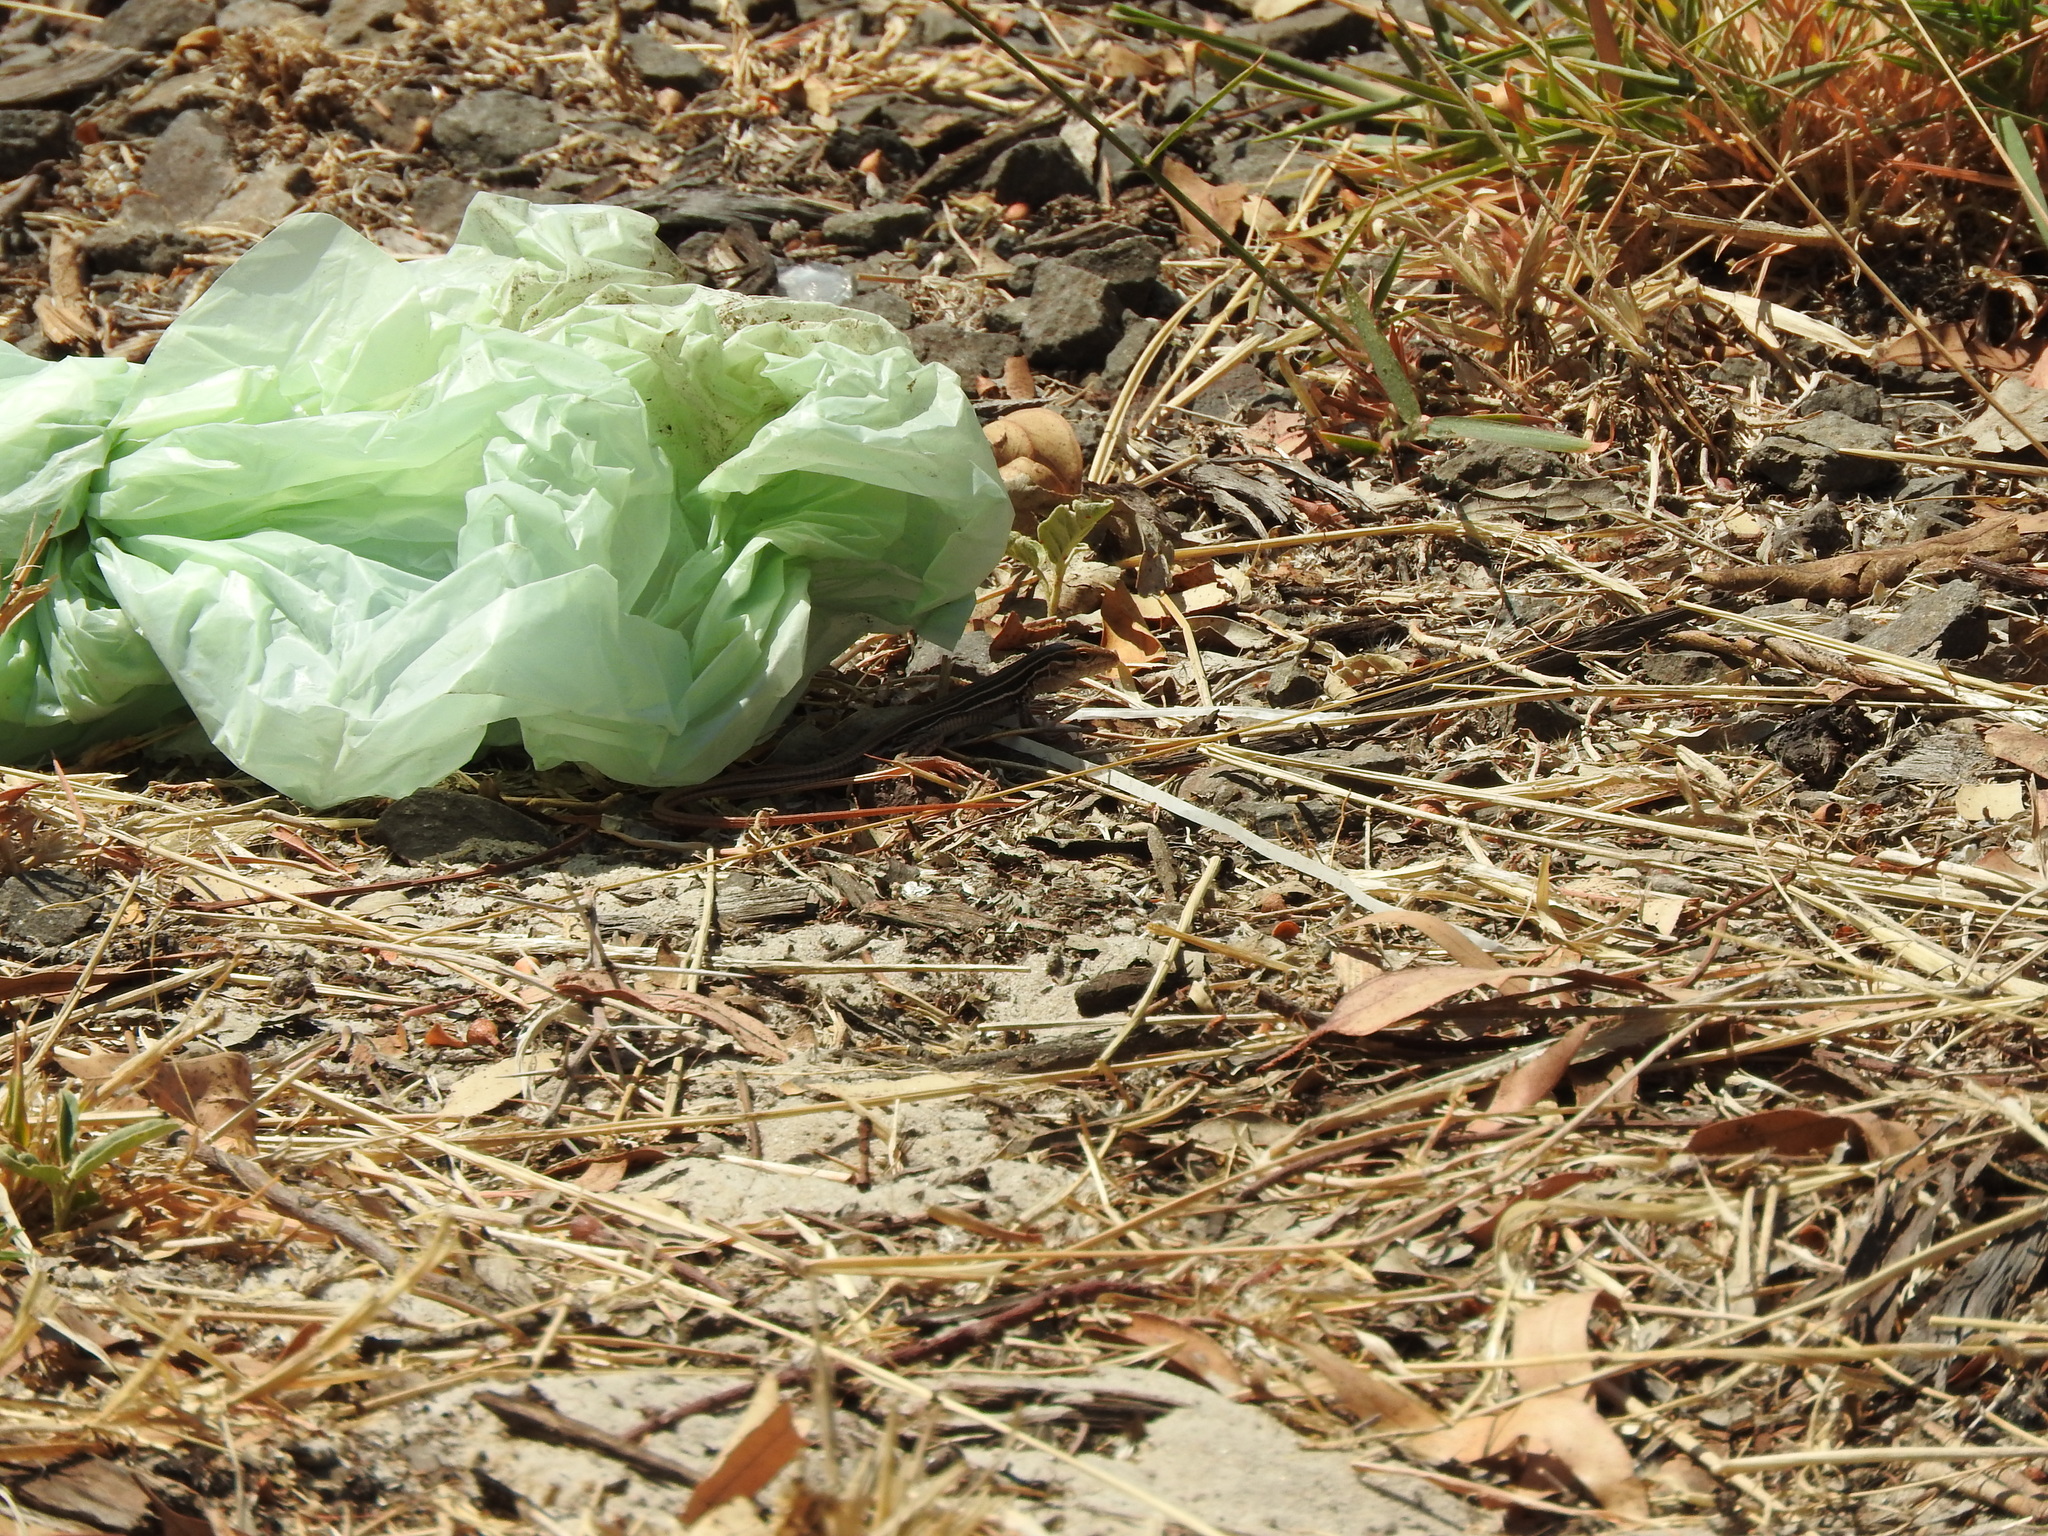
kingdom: Animalia
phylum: Chordata
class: Squamata
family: Teiidae
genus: Aspidoscelis
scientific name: Aspidoscelis gularis
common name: Eastern spotted whiptail
